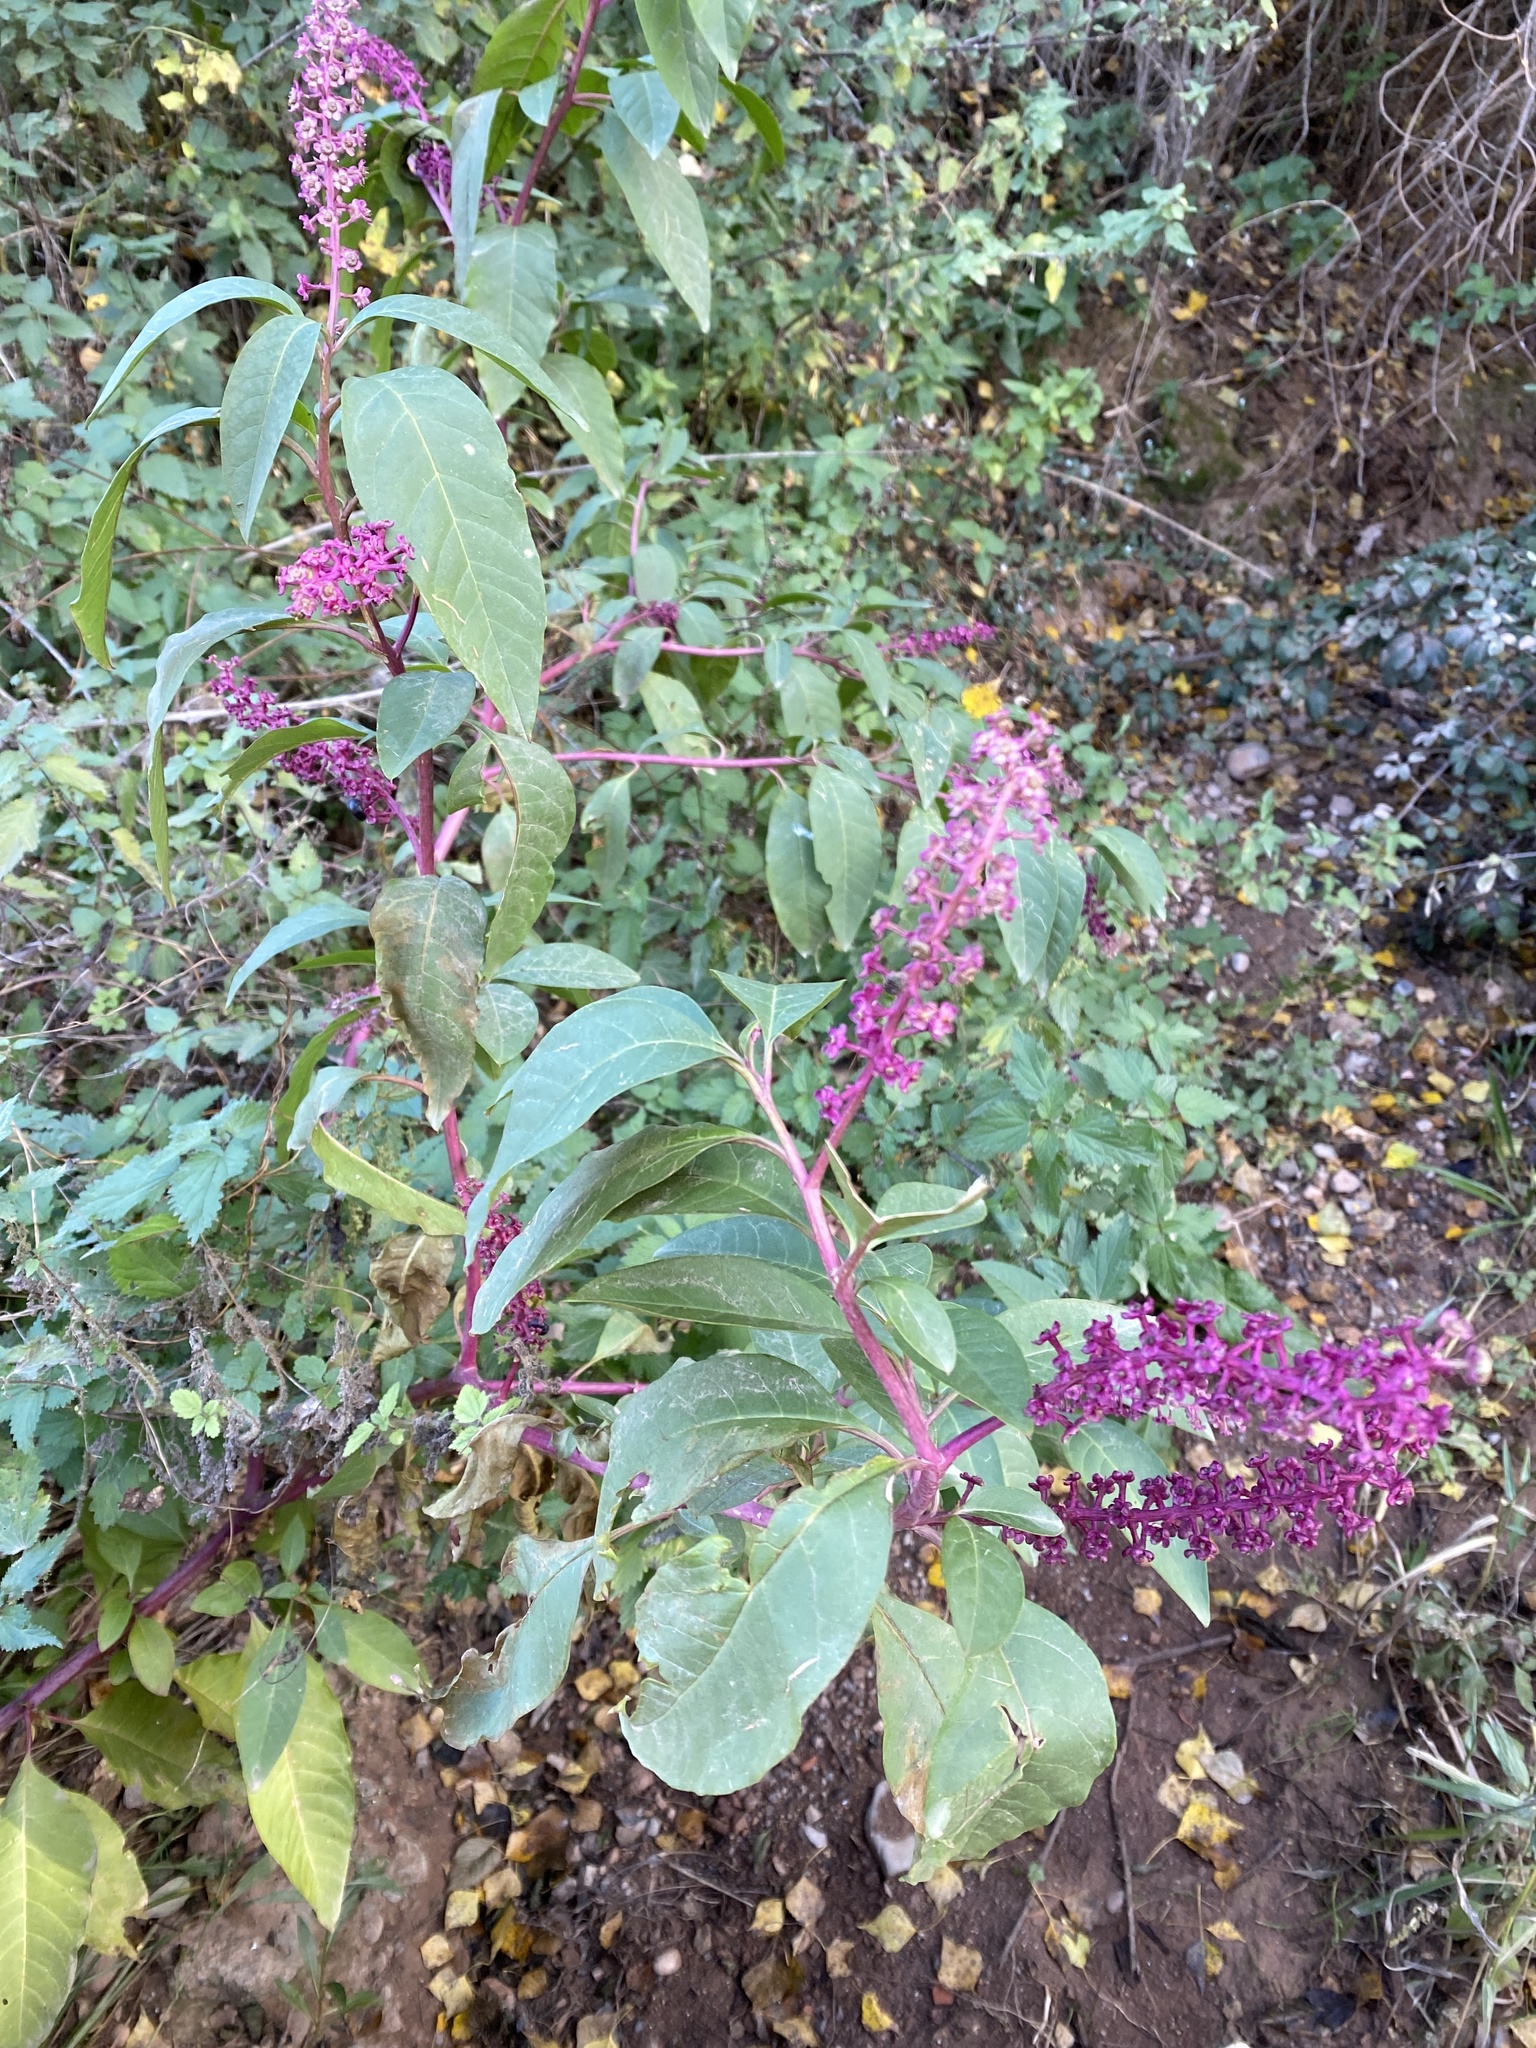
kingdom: Plantae
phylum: Tracheophyta
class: Magnoliopsida
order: Caryophyllales
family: Phytolaccaceae
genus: Phytolacca
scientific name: Phytolacca americana
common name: American pokeweed
